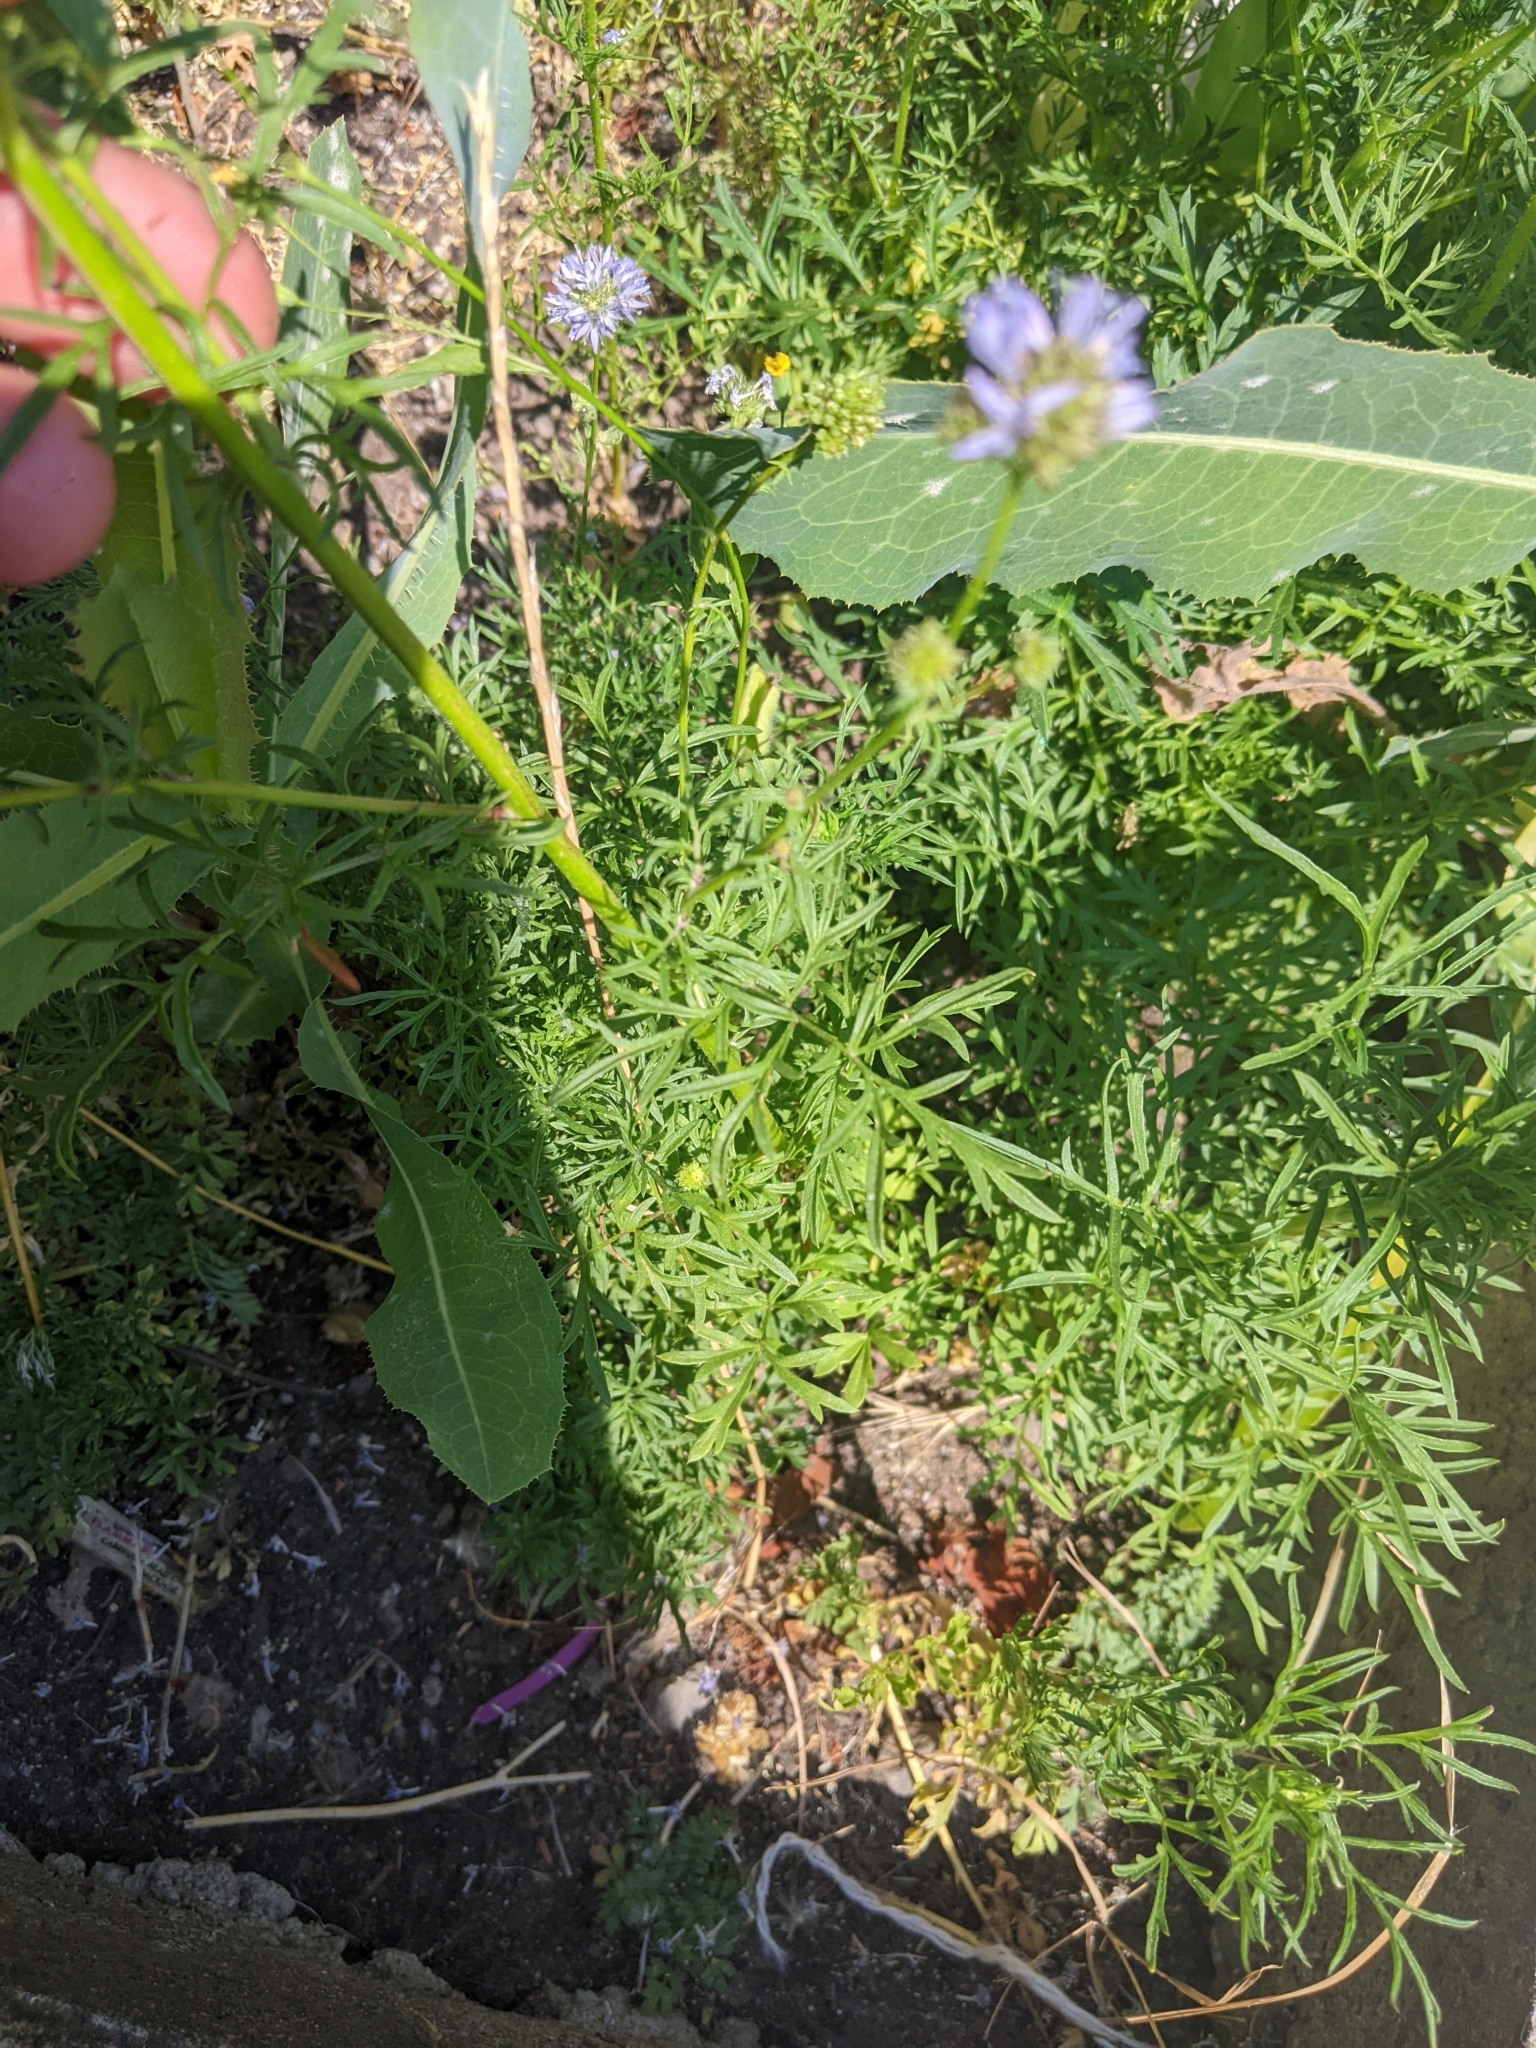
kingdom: Plantae
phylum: Tracheophyta
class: Magnoliopsida
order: Ericales
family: Polemoniaceae
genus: Gilia
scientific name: Gilia capitata
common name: Bluehead gilia
